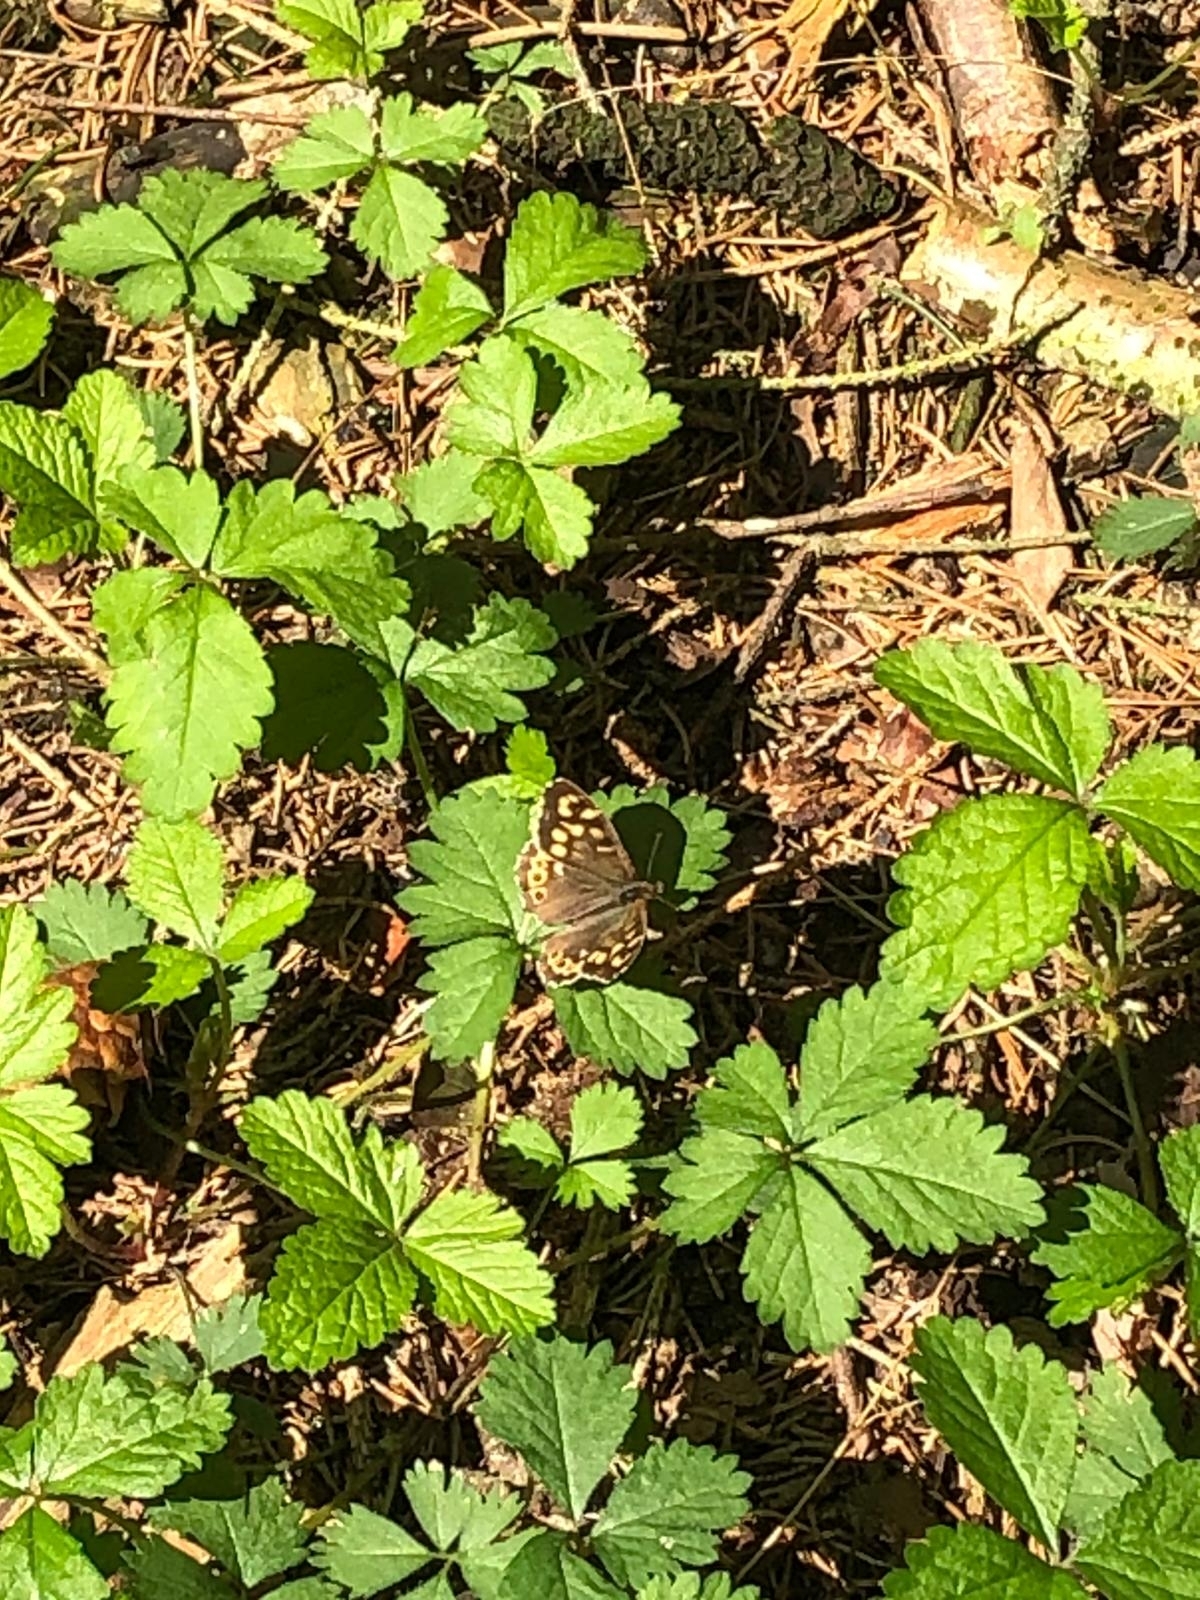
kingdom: Animalia
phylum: Arthropoda
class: Insecta
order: Lepidoptera
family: Nymphalidae
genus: Pararge
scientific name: Pararge aegeria
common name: Speckled wood
